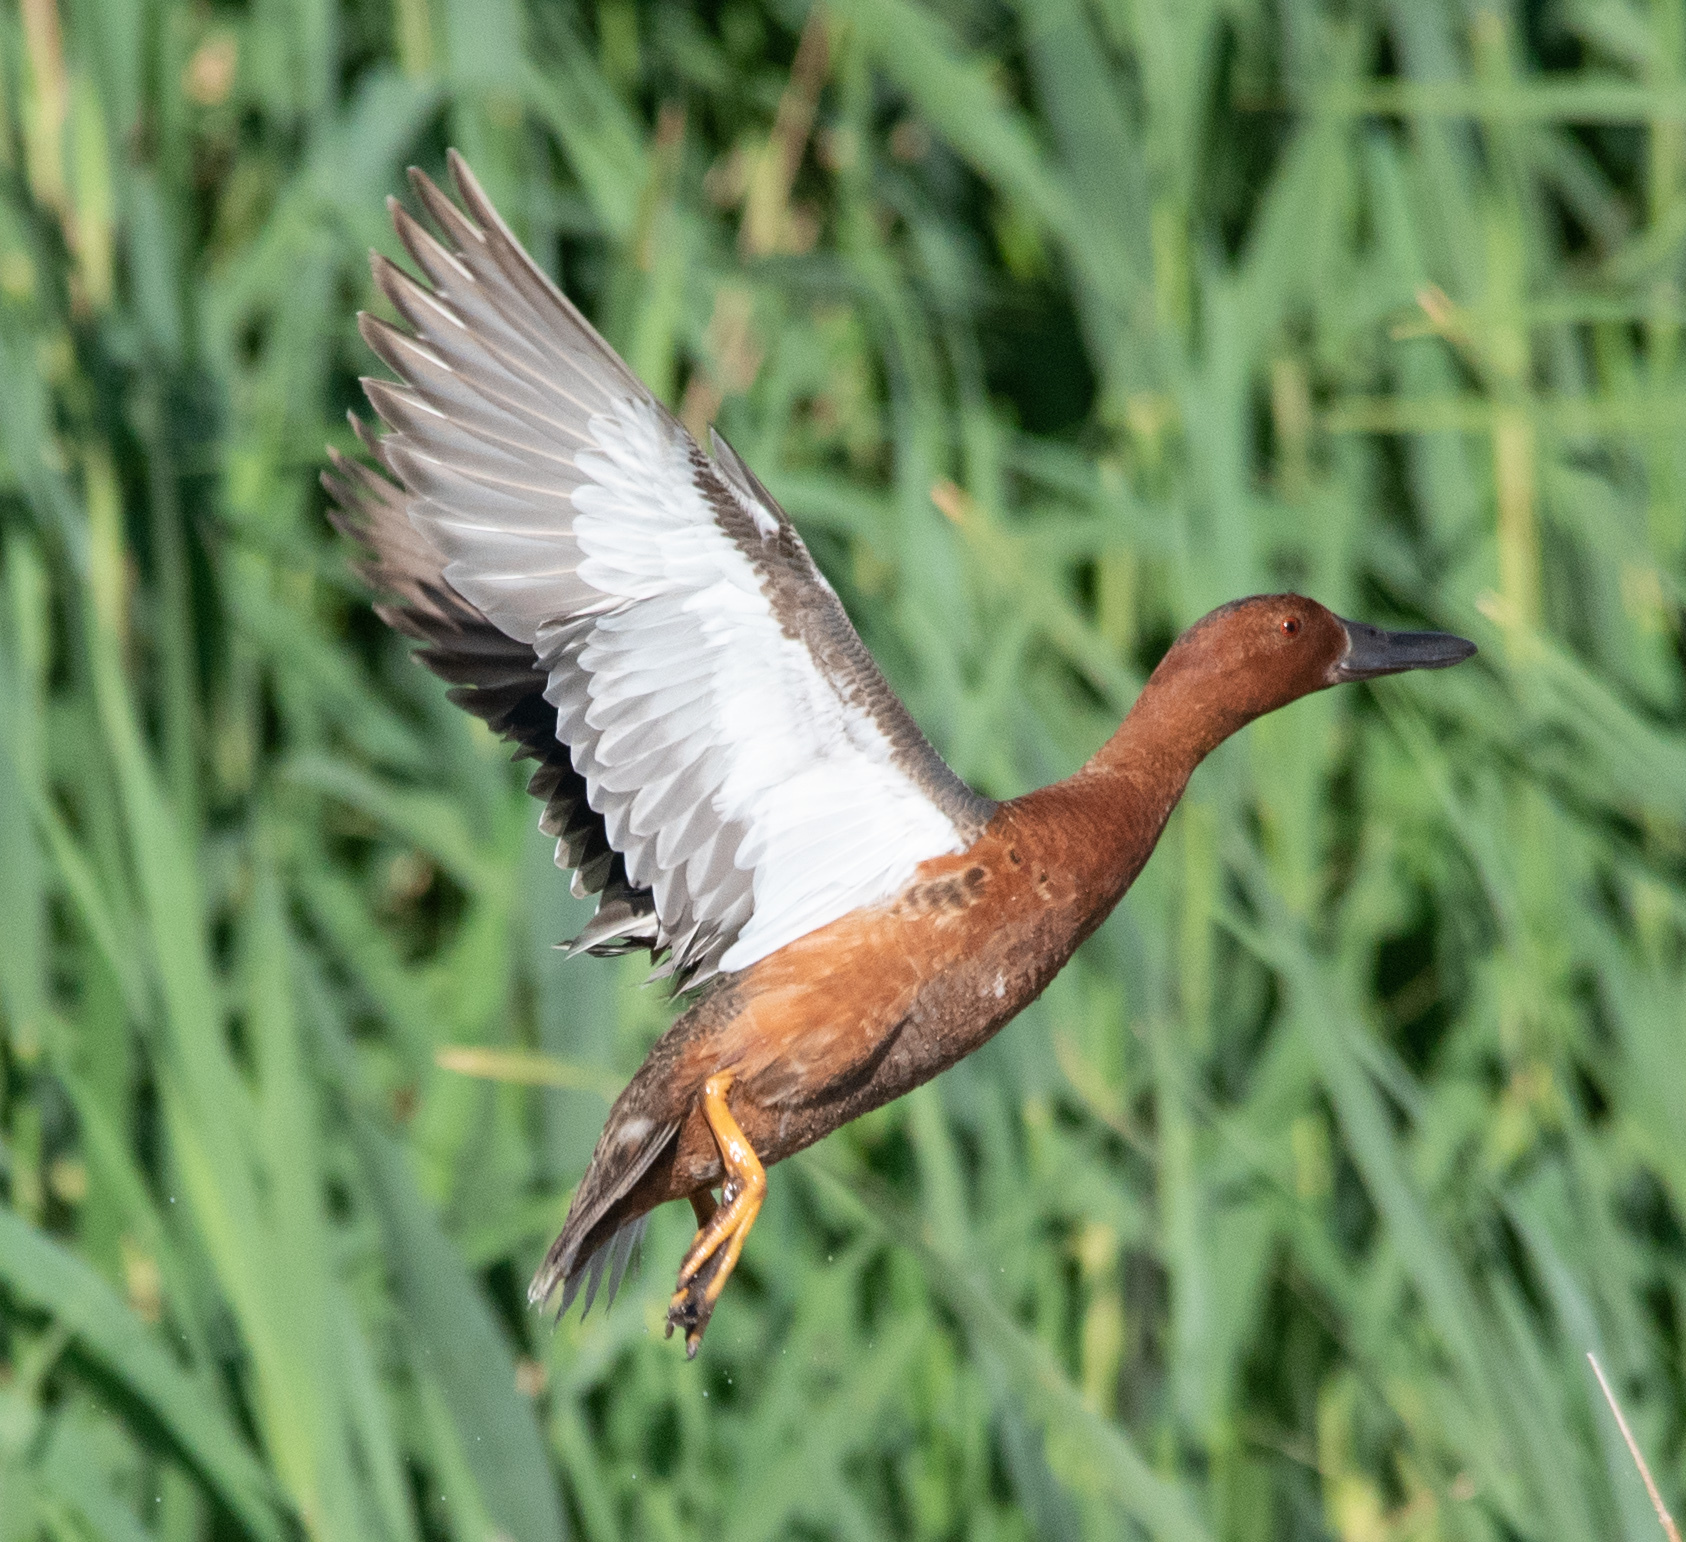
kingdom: Animalia
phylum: Chordata
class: Aves
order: Anseriformes
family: Anatidae
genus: Spatula
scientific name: Spatula cyanoptera
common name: Cinnamon teal
